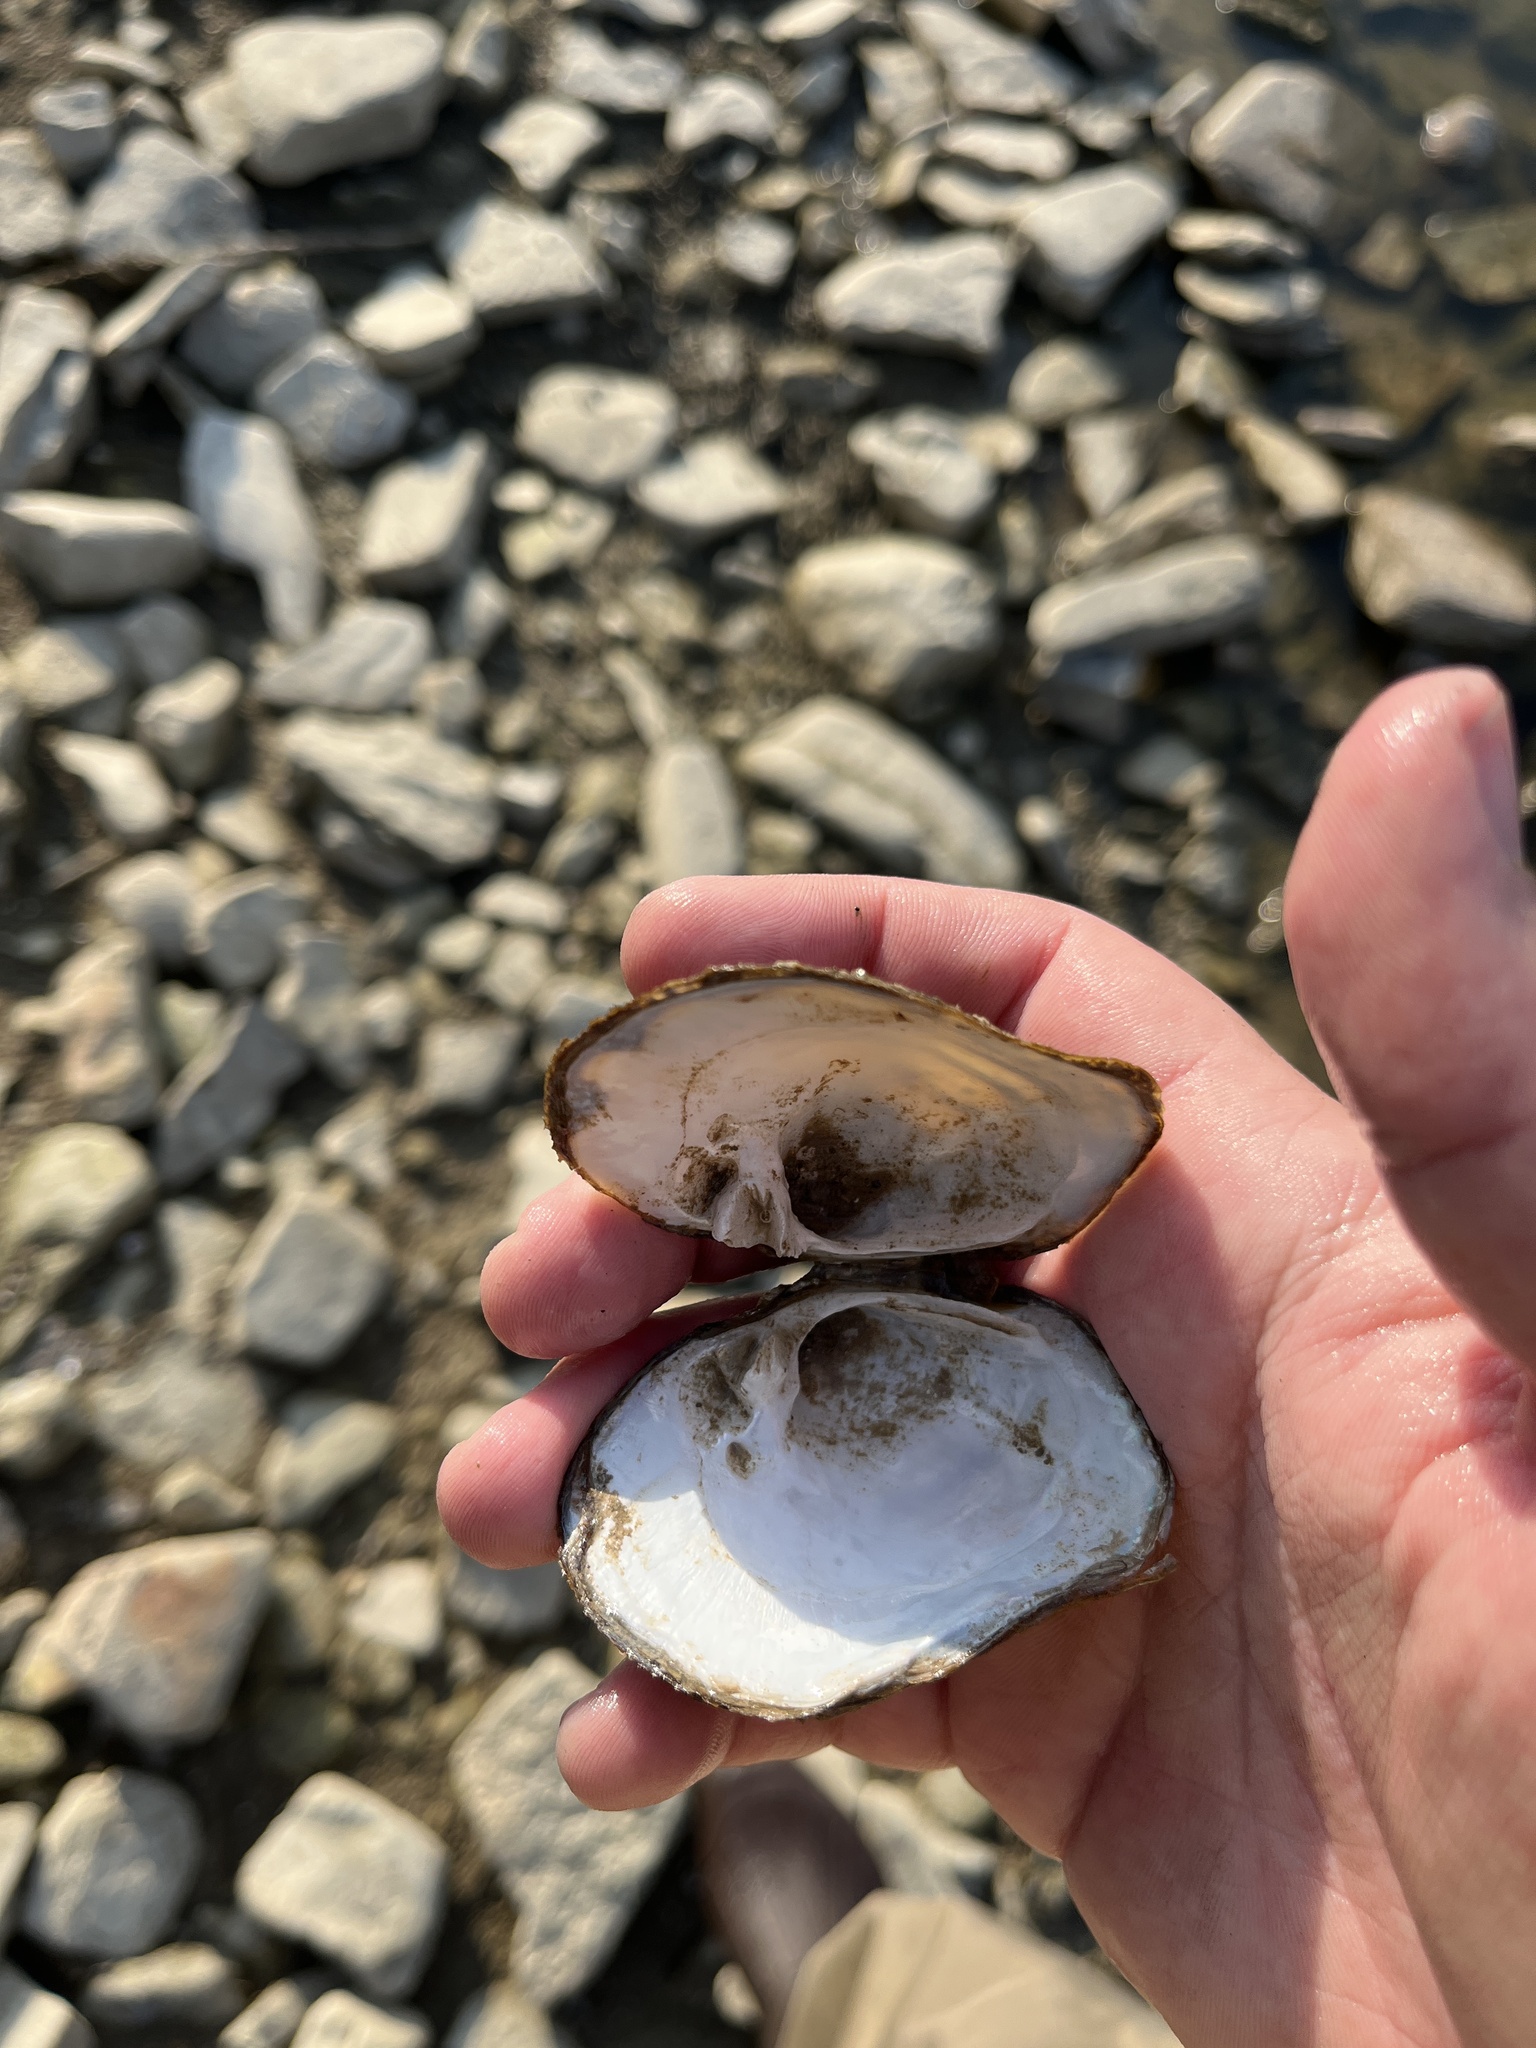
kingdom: Animalia
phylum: Mollusca
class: Bivalvia
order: Unionida
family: Unionidae
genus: Quadrula
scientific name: Quadrula quadrula
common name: Mapleleaf
